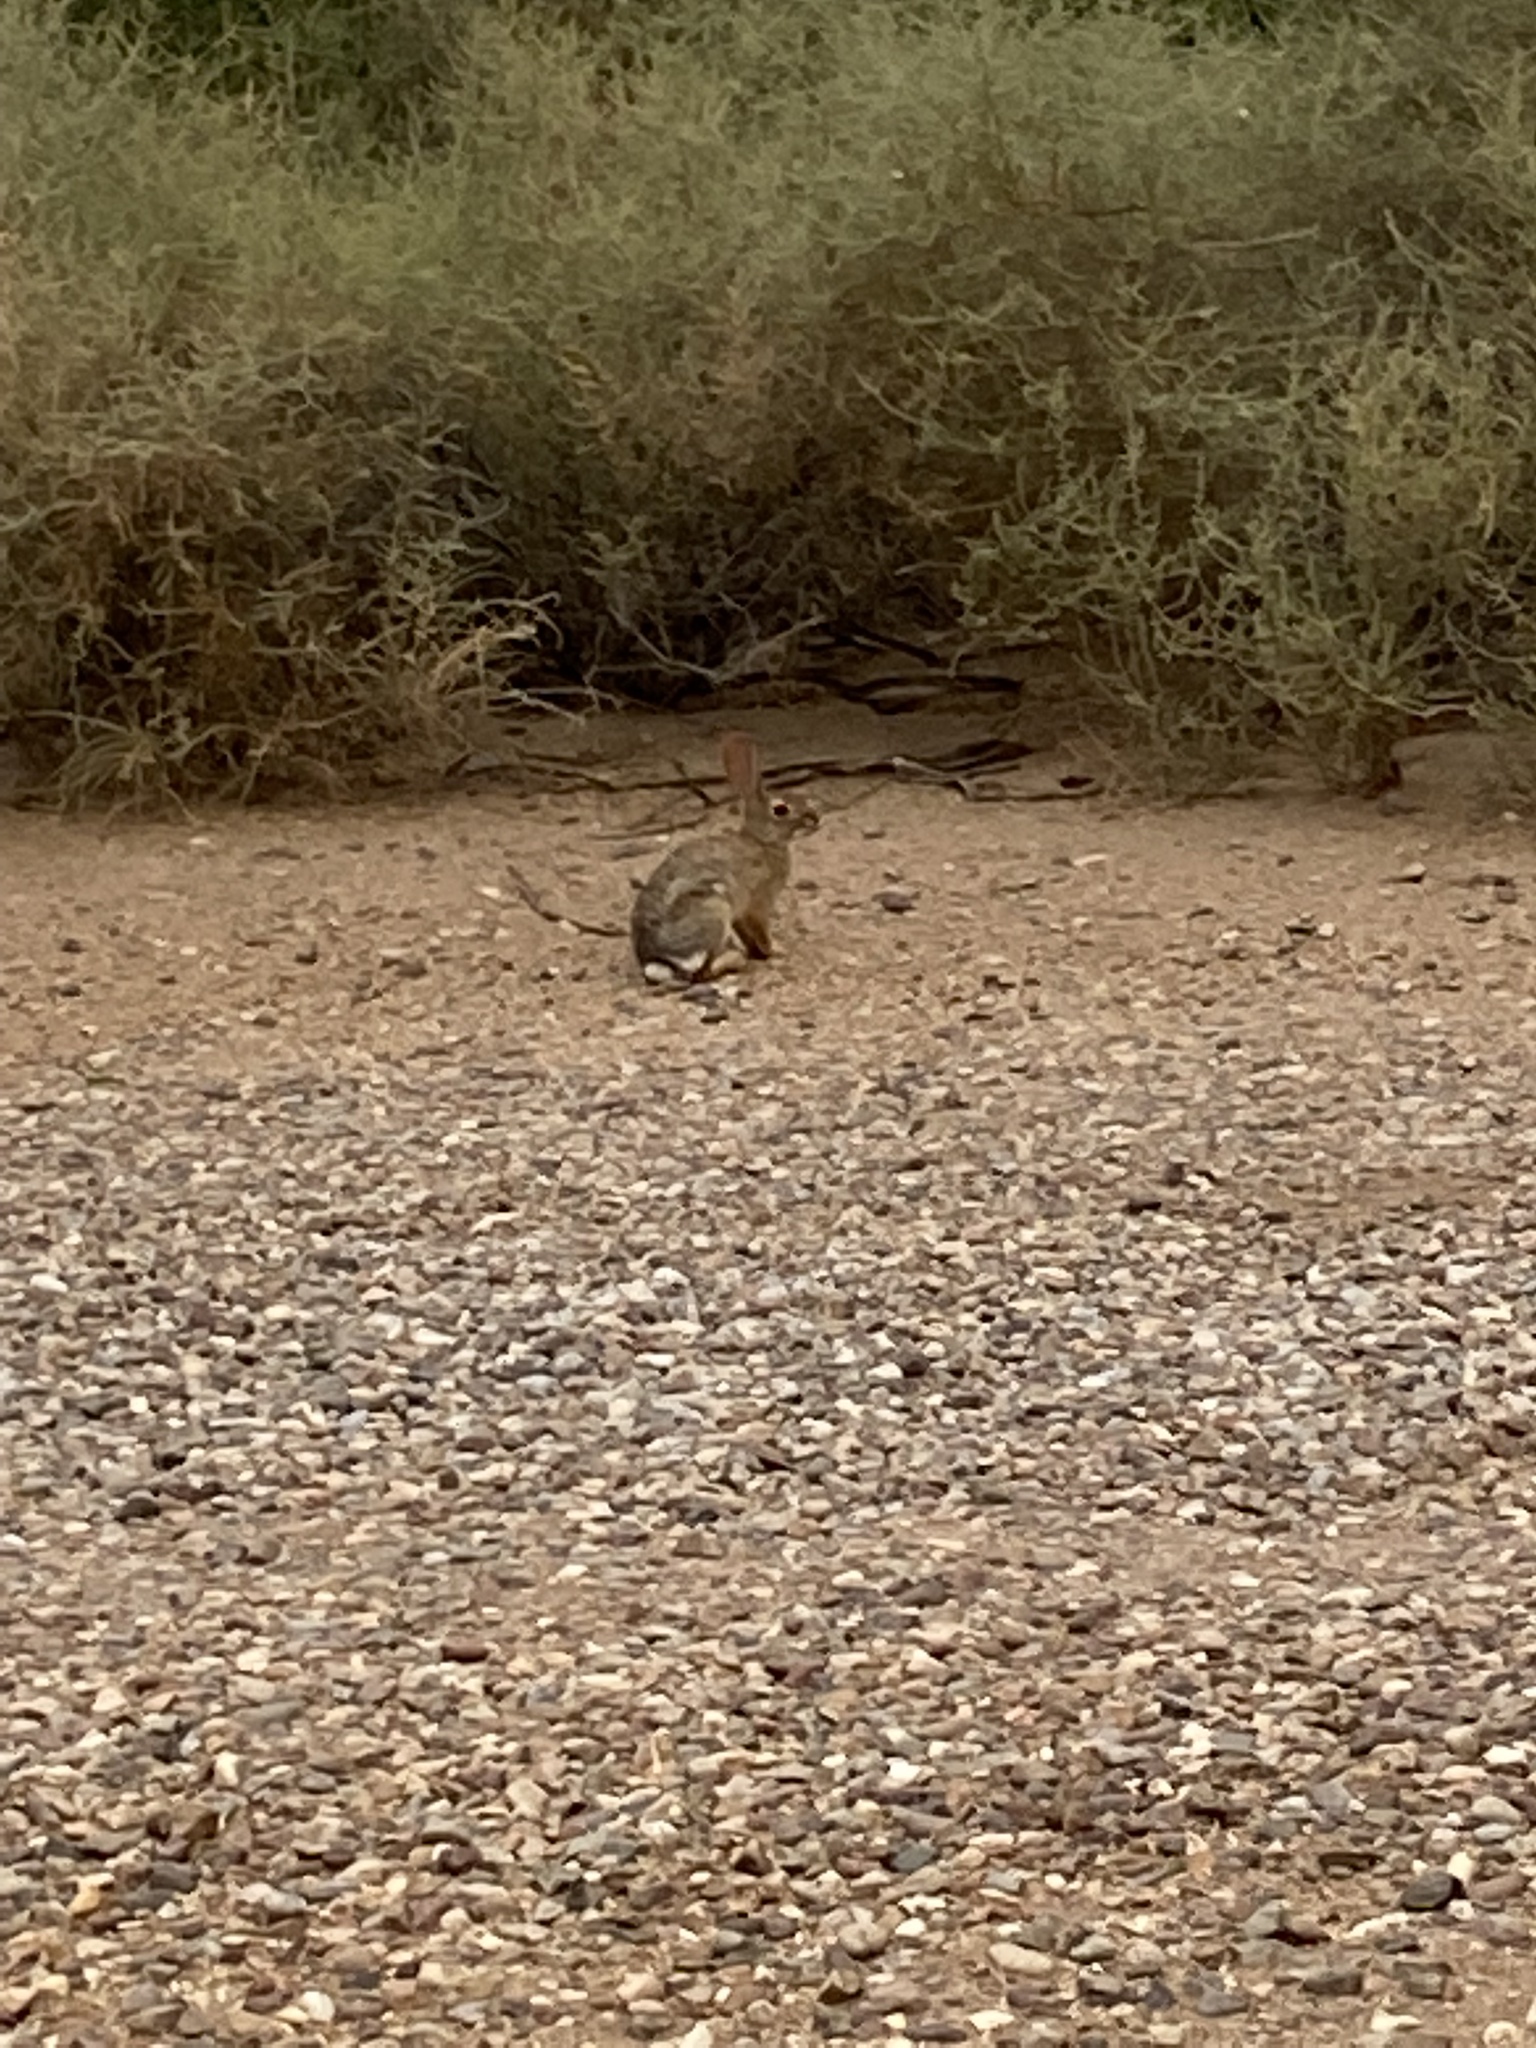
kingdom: Animalia
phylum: Chordata
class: Mammalia
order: Lagomorpha
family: Leporidae
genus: Sylvilagus
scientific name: Sylvilagus audubonii
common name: Desert cottontail
